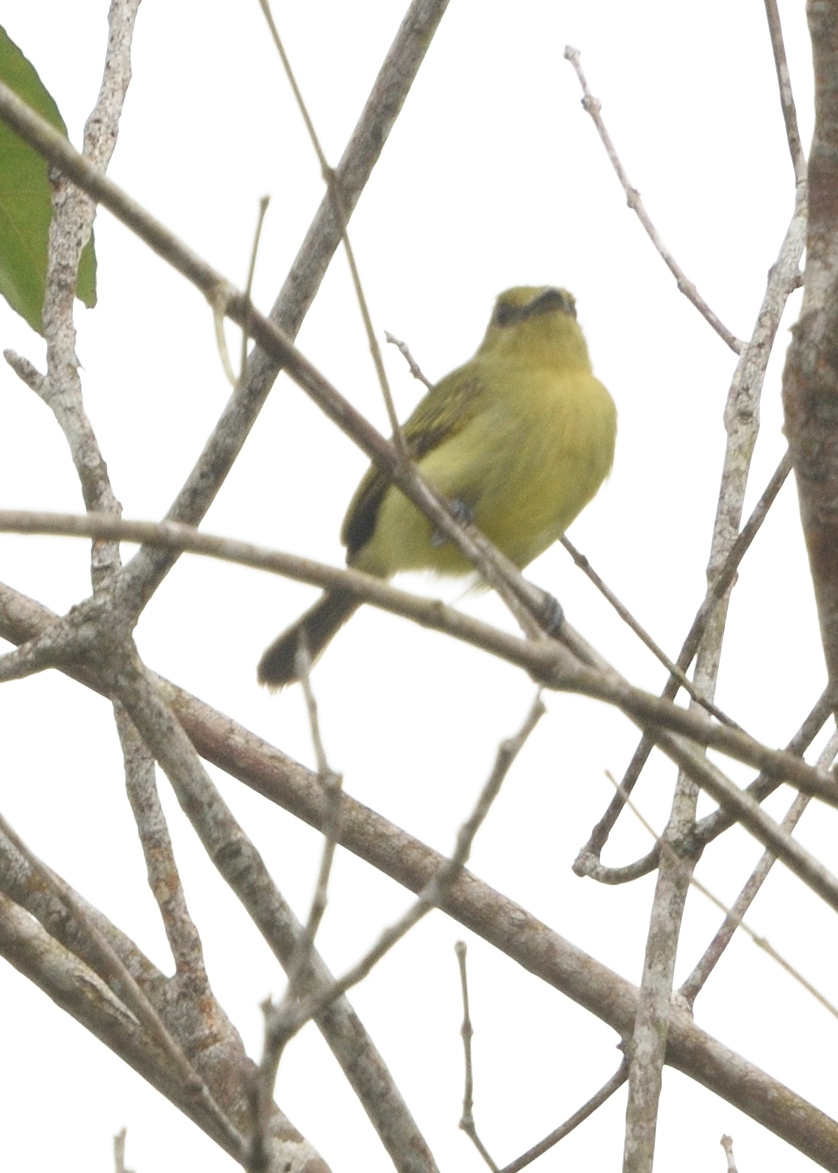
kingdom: Animalia
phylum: Chordata
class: Aves
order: Passeriformes
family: Tyrannidae
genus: Tolmomyias
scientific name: Tolmomyias flaviventris
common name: Ochre-lored flatbill
